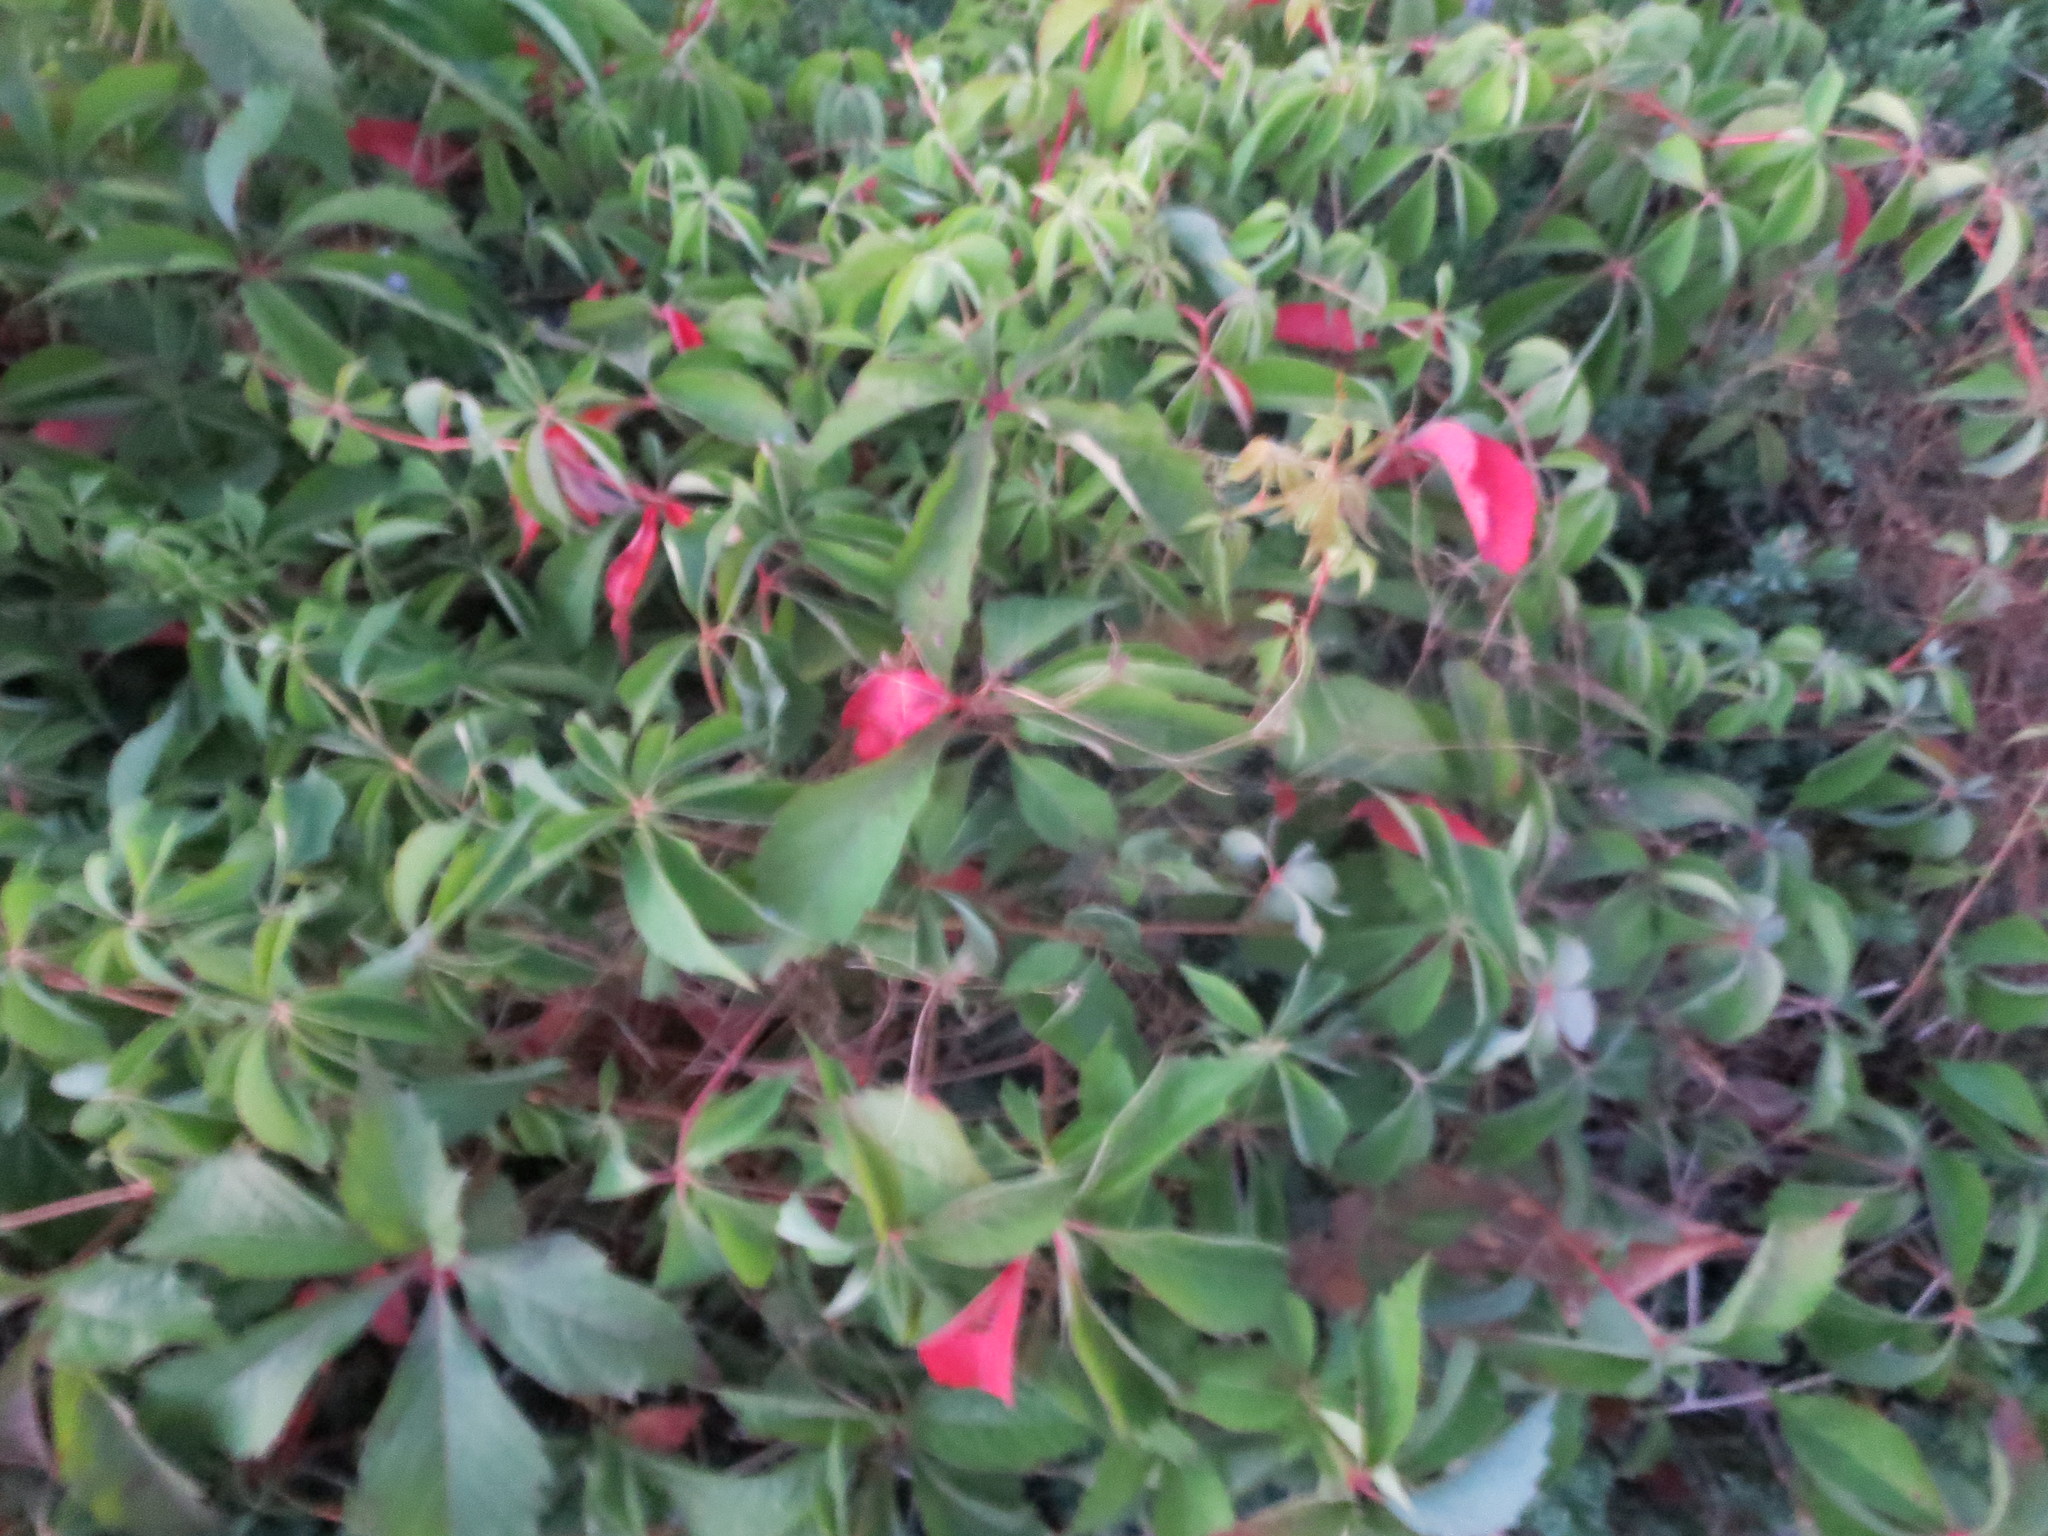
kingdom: Plantae
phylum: Tracheophyta
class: Magnoliopsida
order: Vitales
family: Vitaceae
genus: Parthenocissus
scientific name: Parthenocissus quinquefolia
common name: Virginia-creeper
